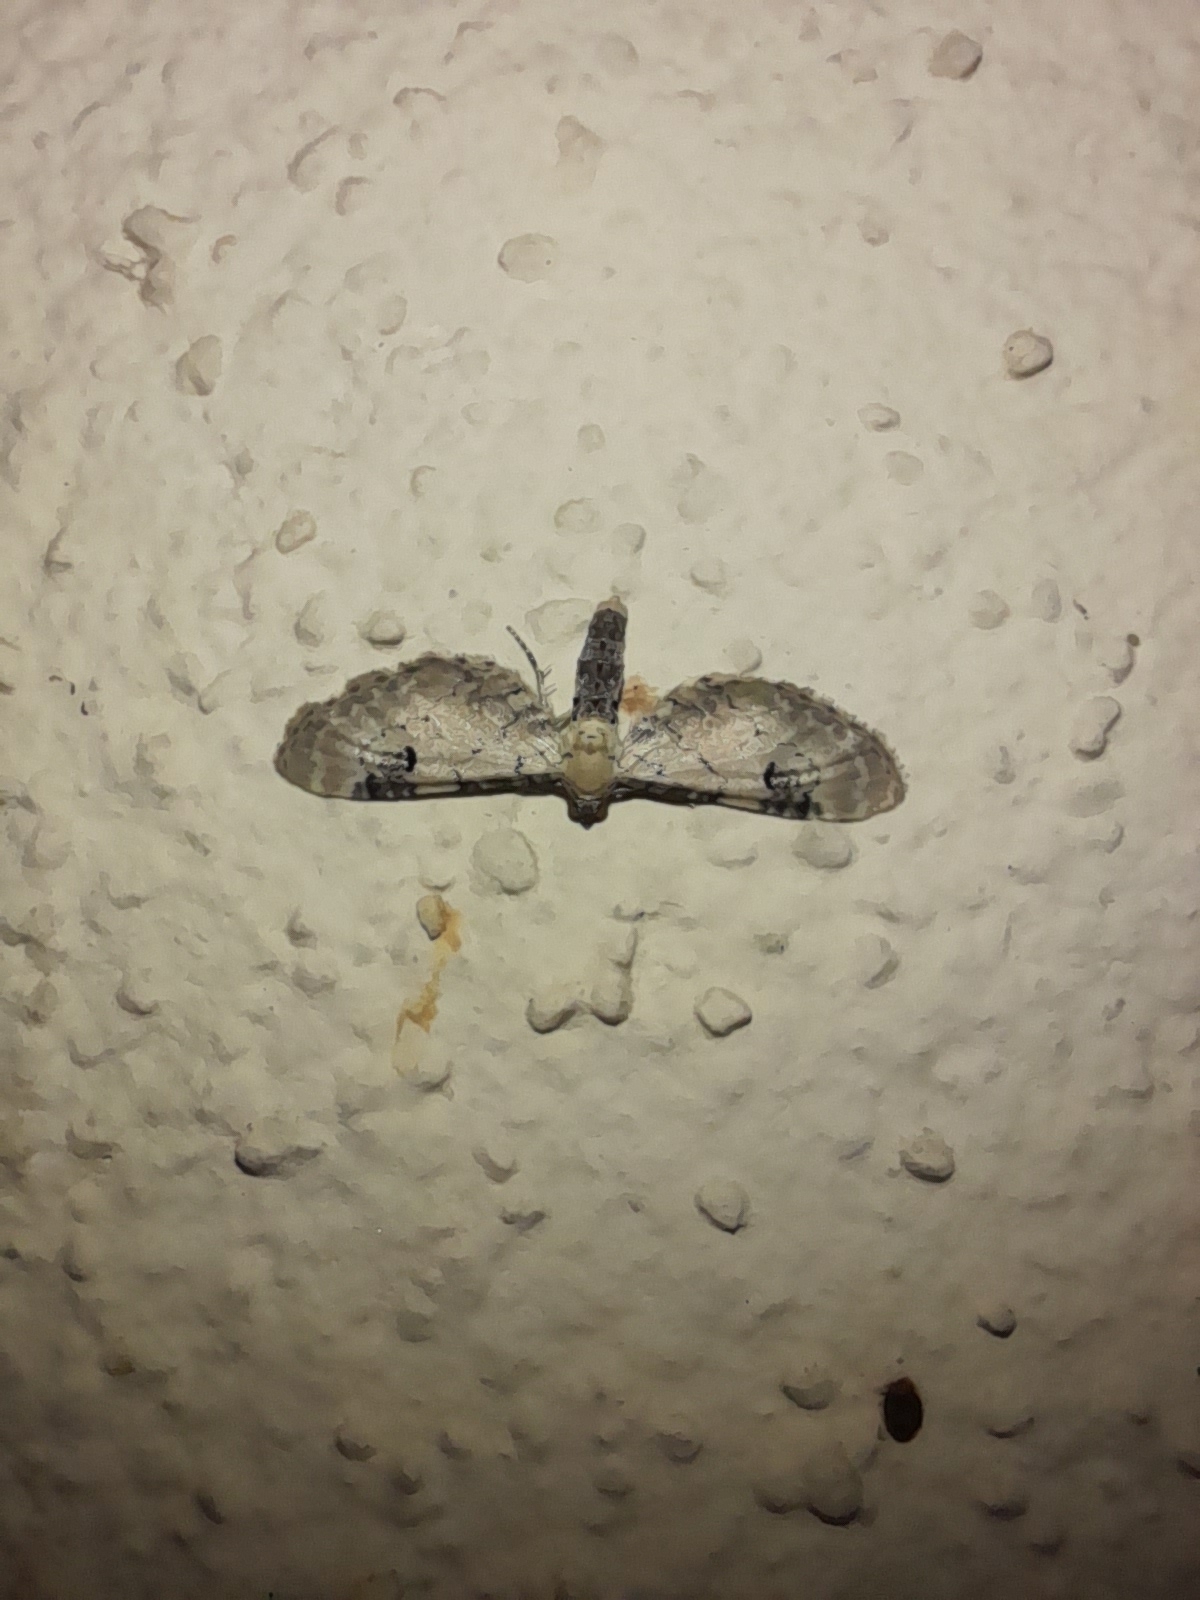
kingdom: Animalia
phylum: Arthropoda
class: Insecta
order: Lepidoptera
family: Geometridae
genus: Eupithecia
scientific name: Eupithecia centaureata
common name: Lime-speck pug
